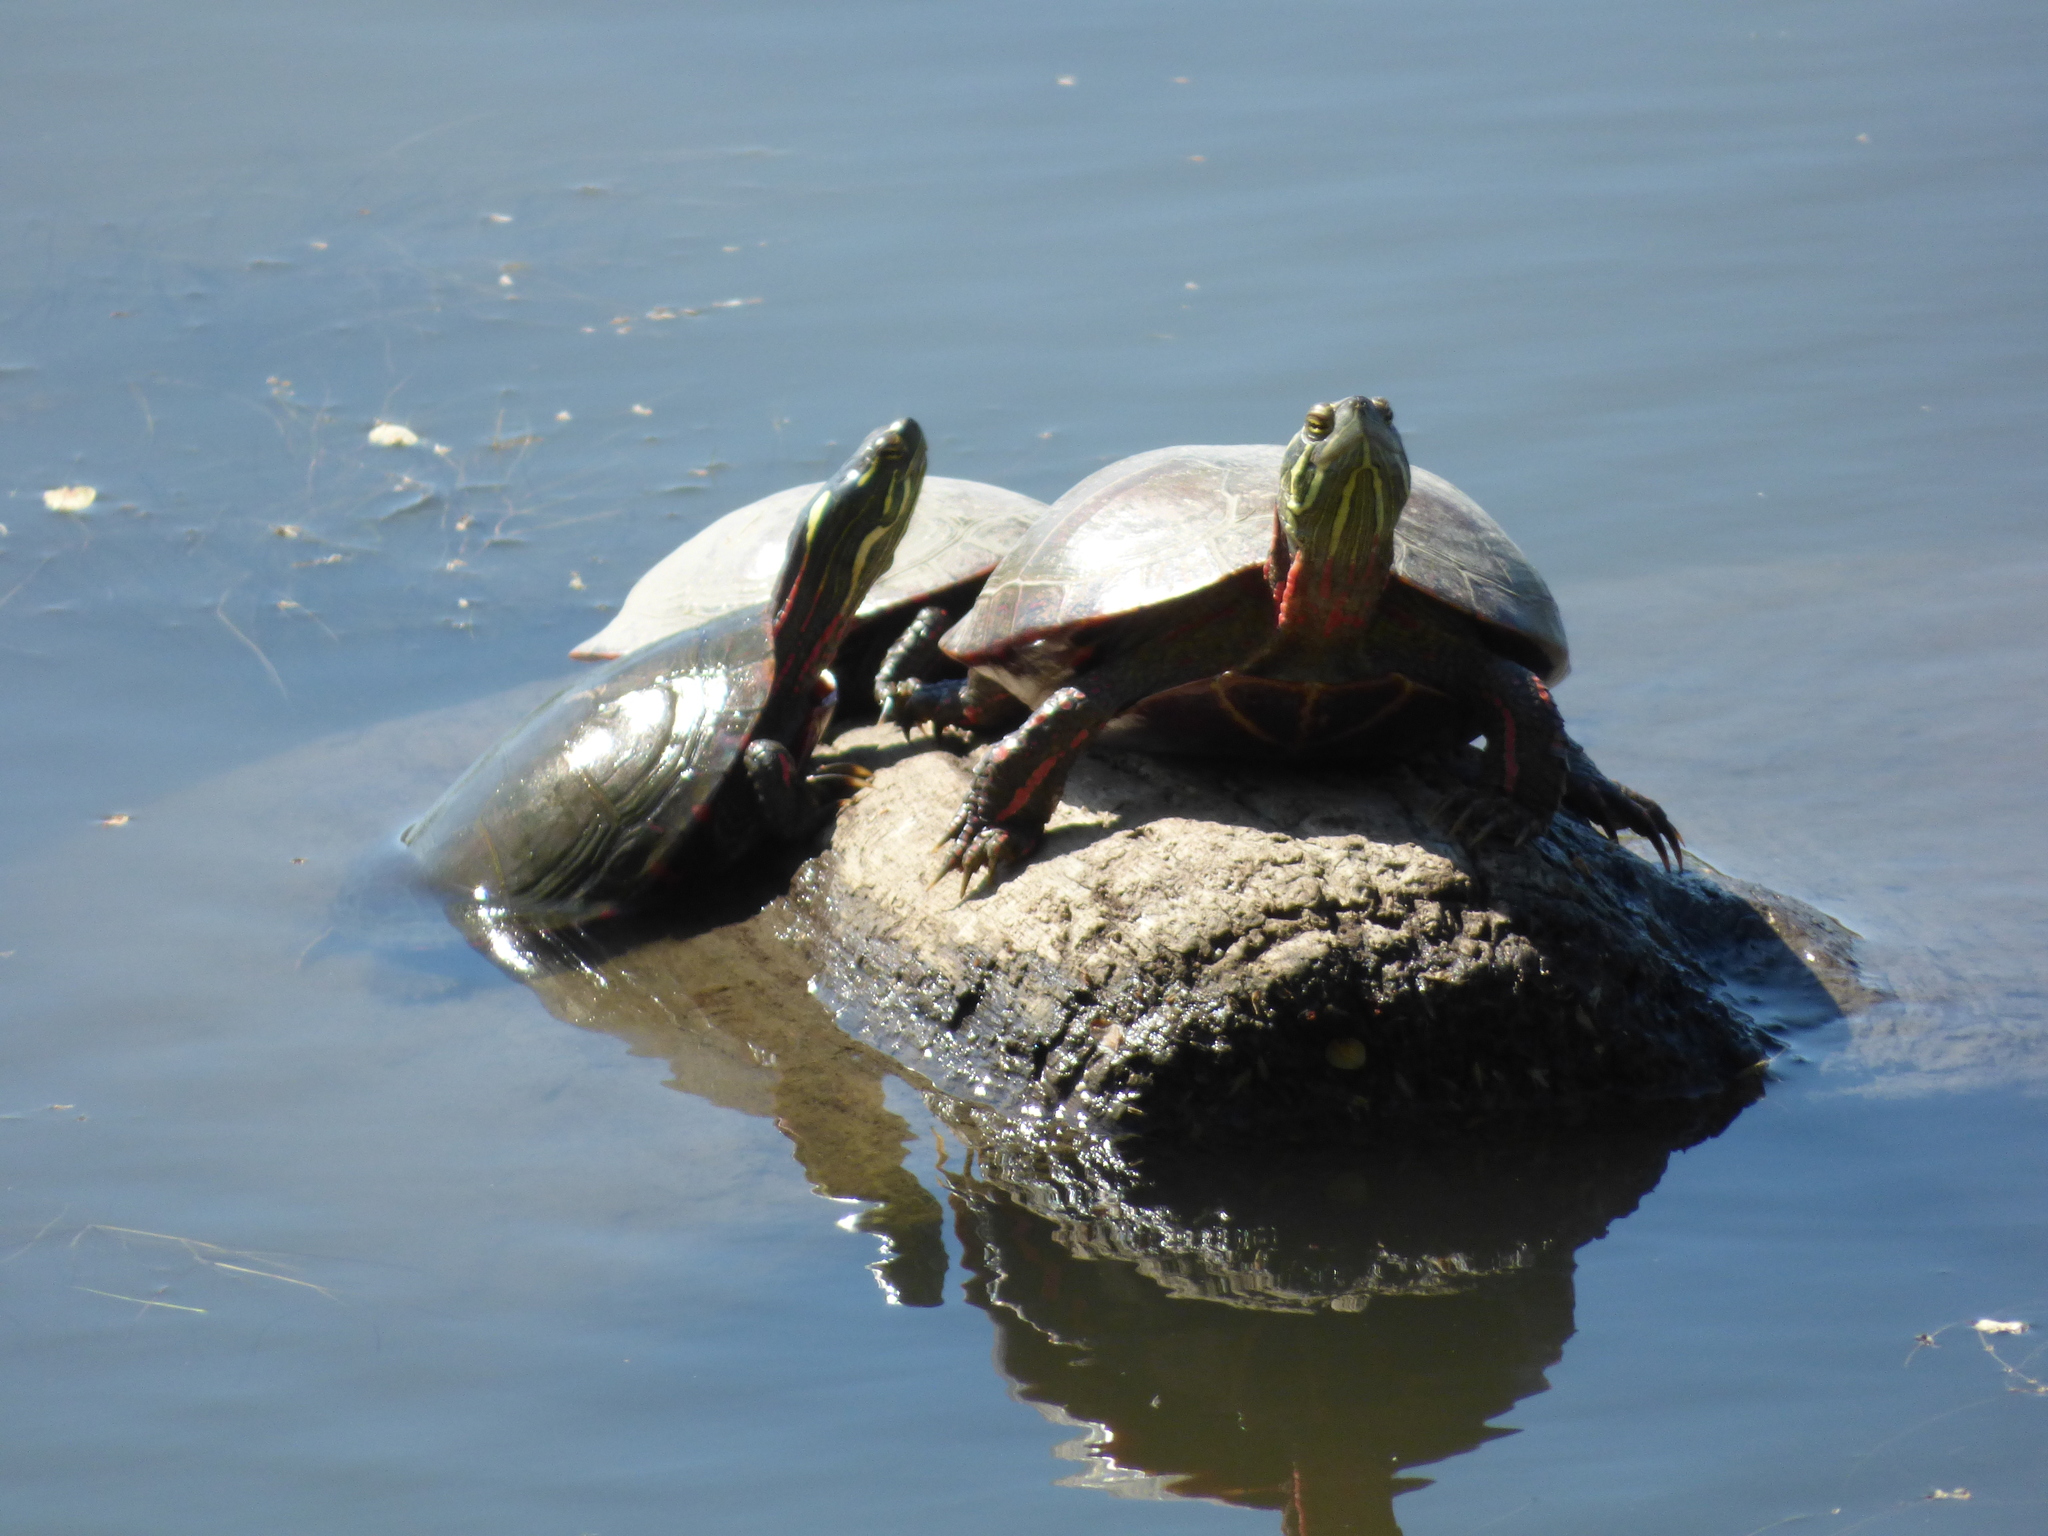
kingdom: Animalia
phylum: Chordata
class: Testudines
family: Emydidae
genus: Chrysemys
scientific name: Chrysemys picta
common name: Painted turtle
